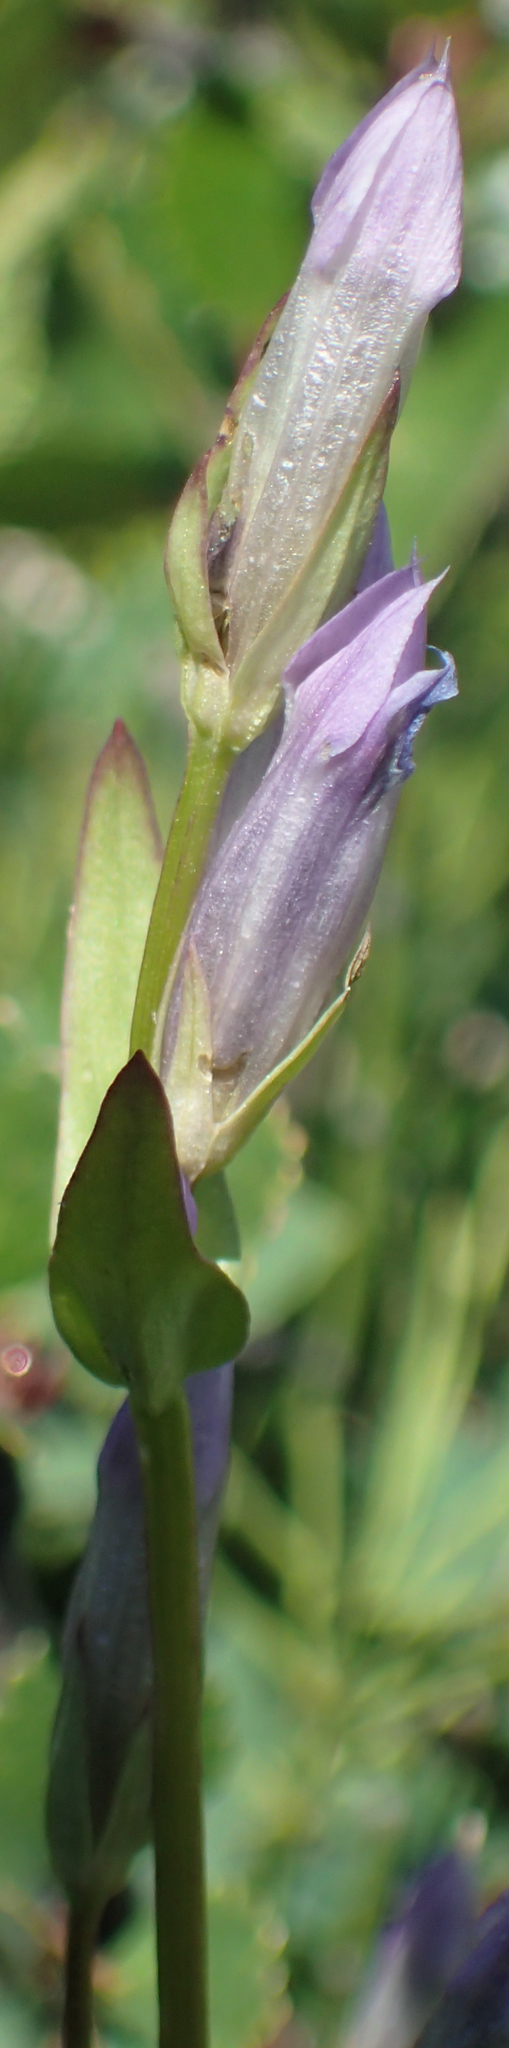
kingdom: Plantae
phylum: Tracheophyta
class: Magnoliopsida
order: Gentianales
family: Gentianaceae
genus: Gentianella
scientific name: Gentianella propinqua
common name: Four-parted dwarf-gentian
